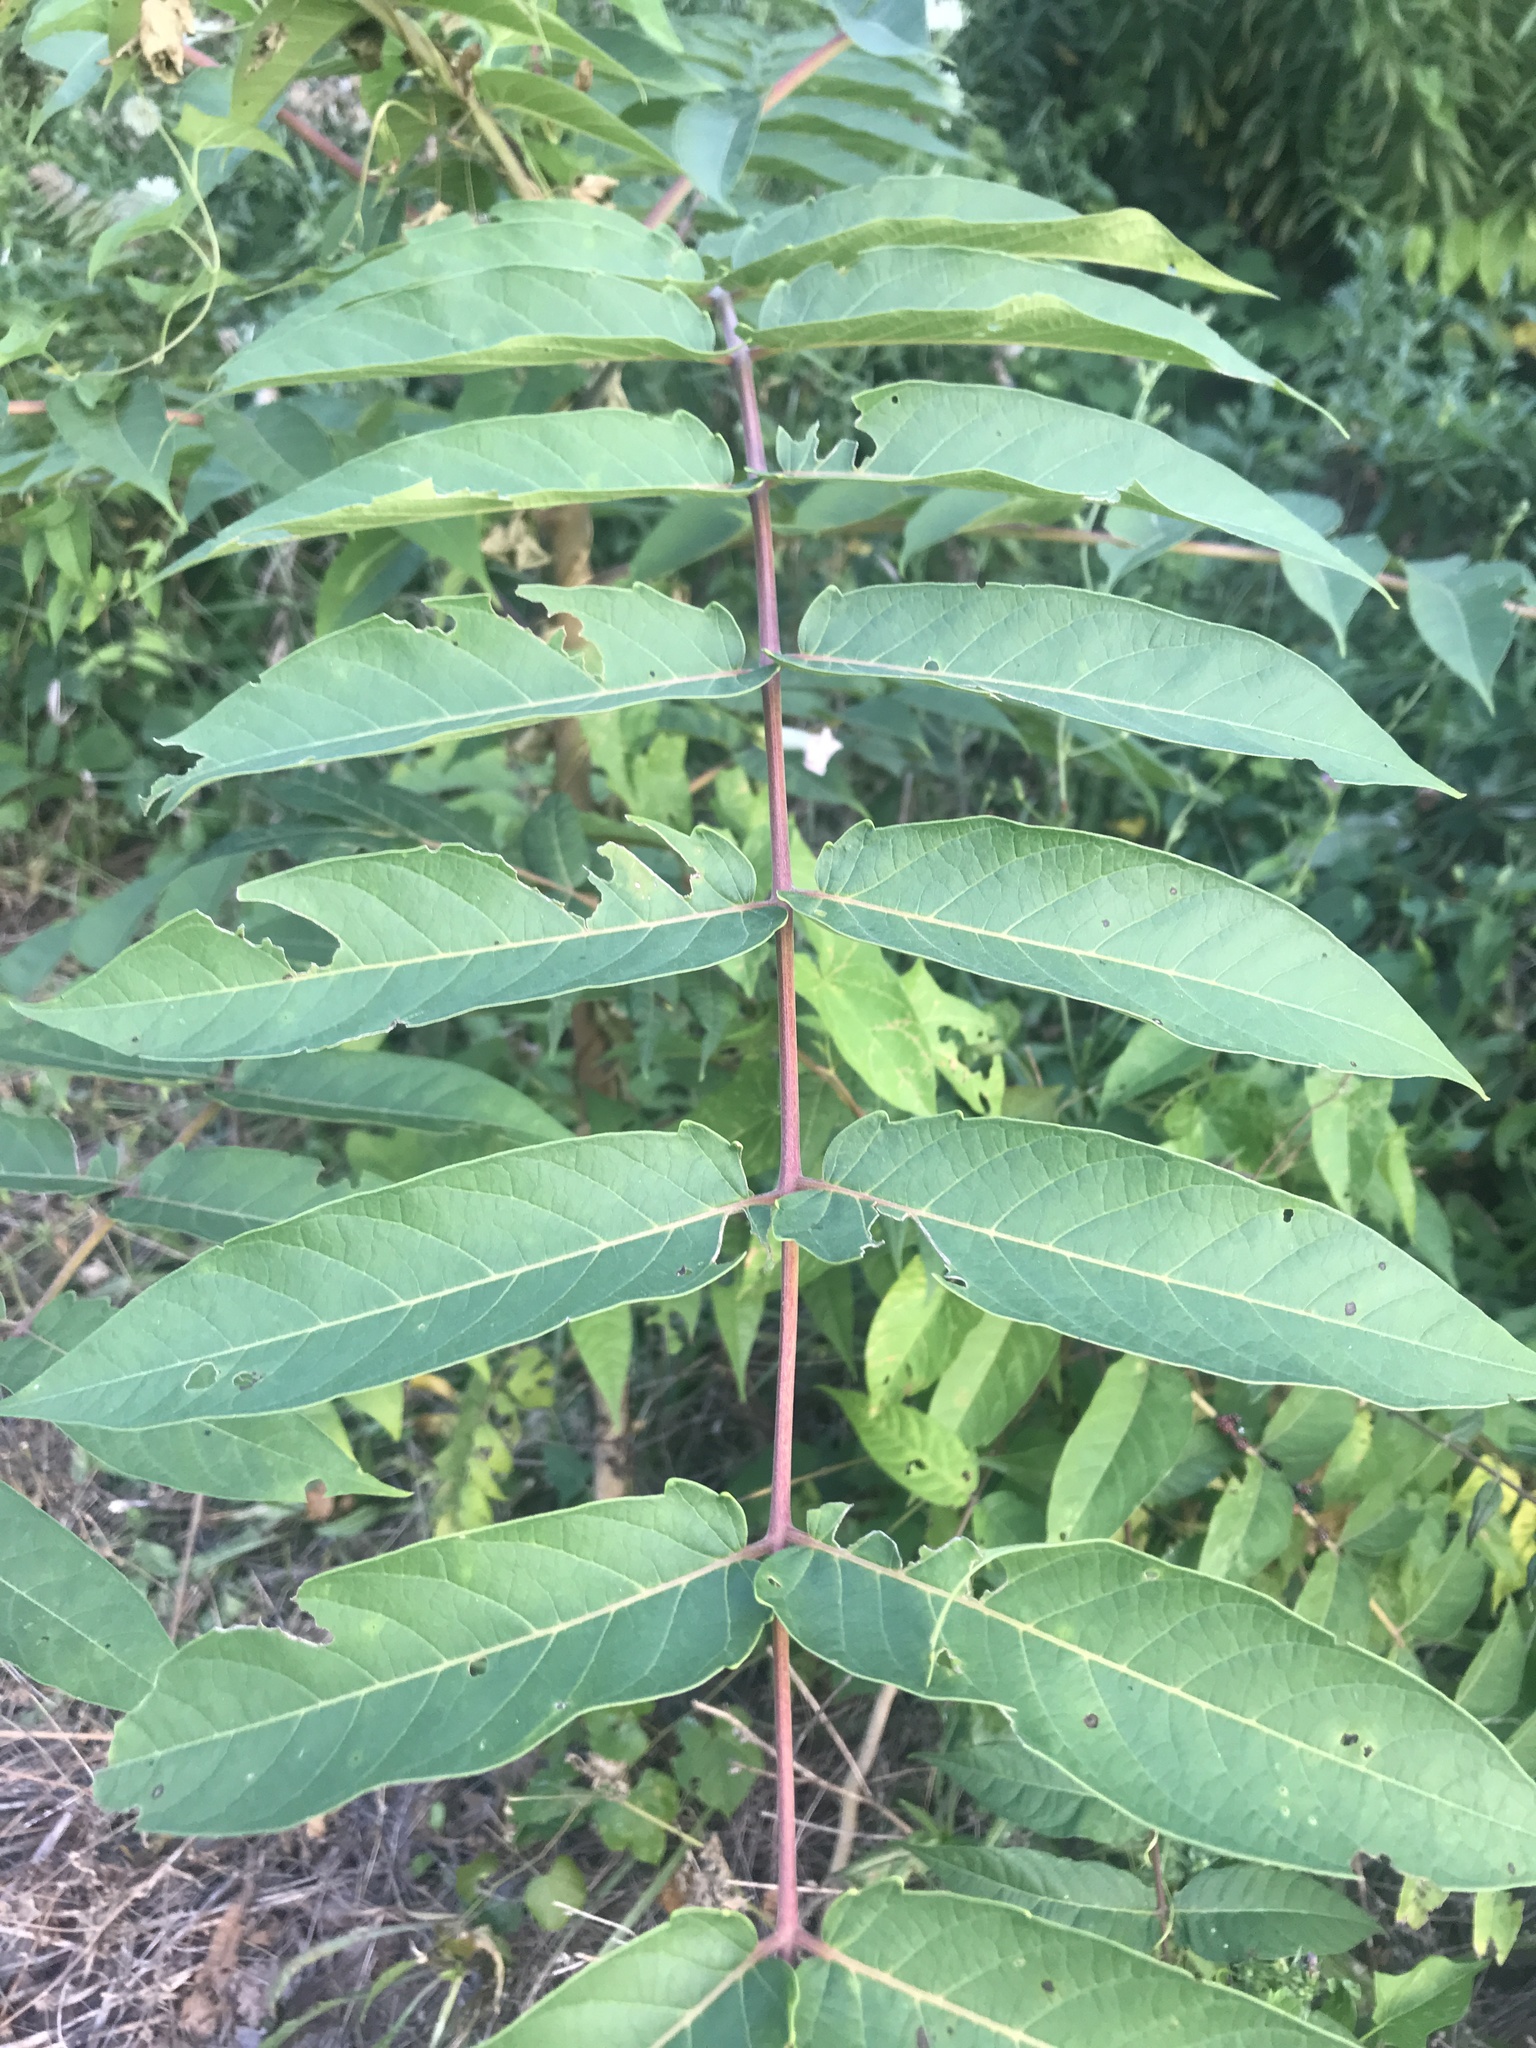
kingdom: Plantae
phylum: Tracheophyta
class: Magnoliopsida
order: Sapindales
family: Simaroubaceae
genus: Ailanthus
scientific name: Ailanthus altissima
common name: Tree-of-heaven
